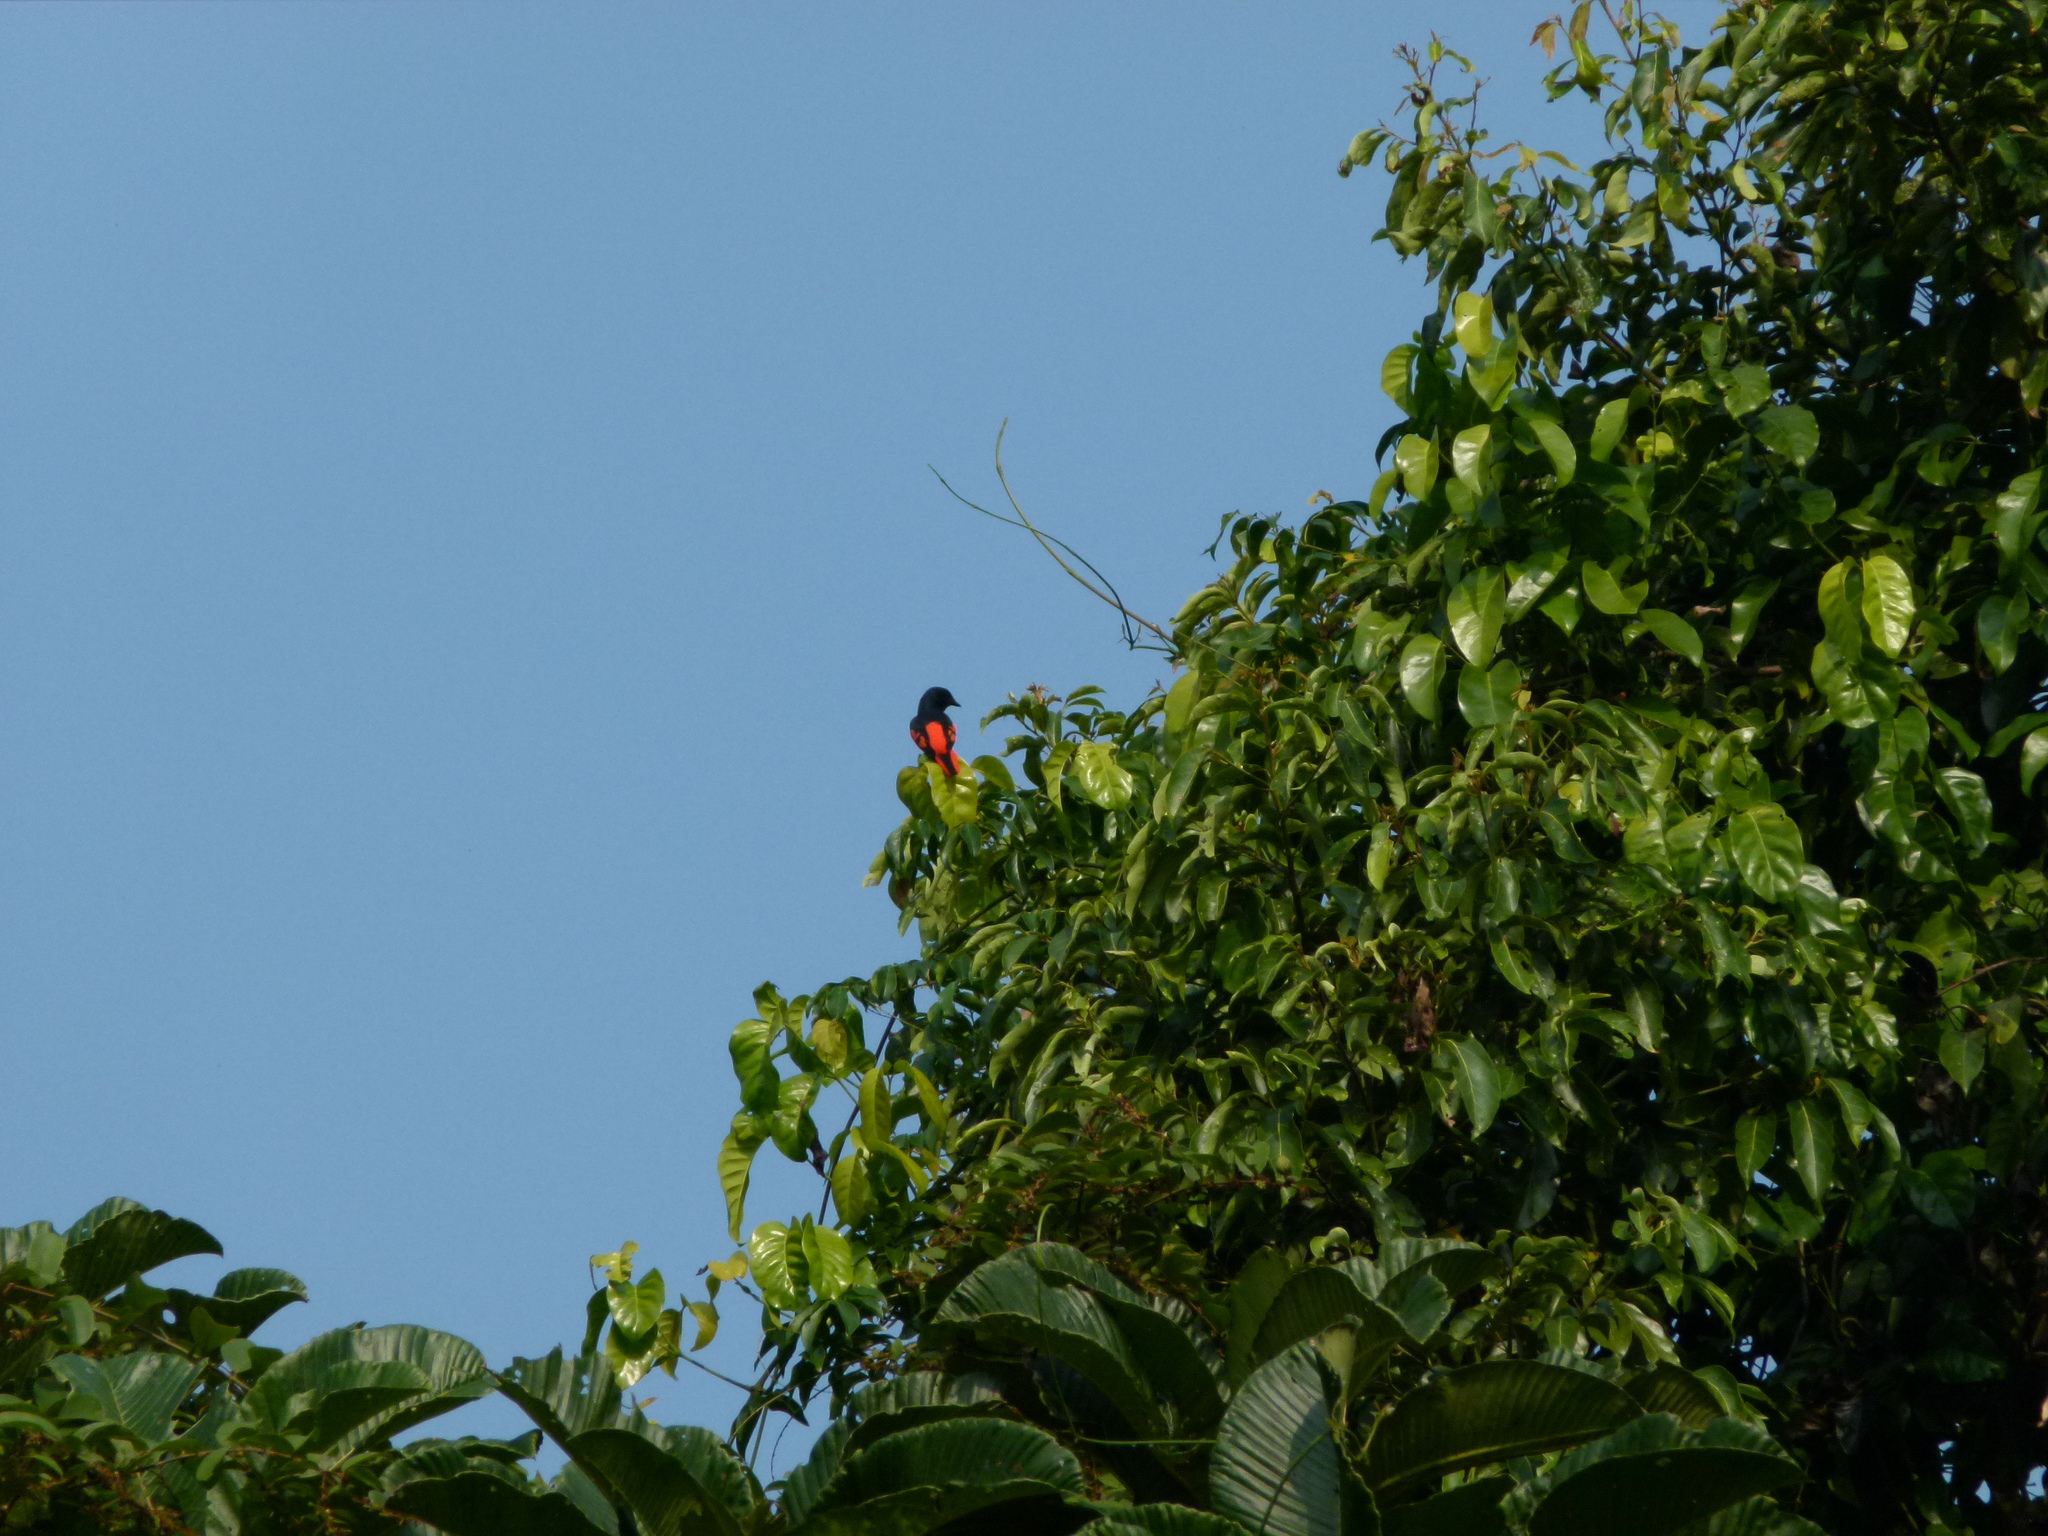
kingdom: Animalia
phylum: Chordata
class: Aves
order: Passeriformes
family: Campephagidae
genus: Pericrocotus
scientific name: Pericrocotus speciosus
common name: Scarlet minivet
